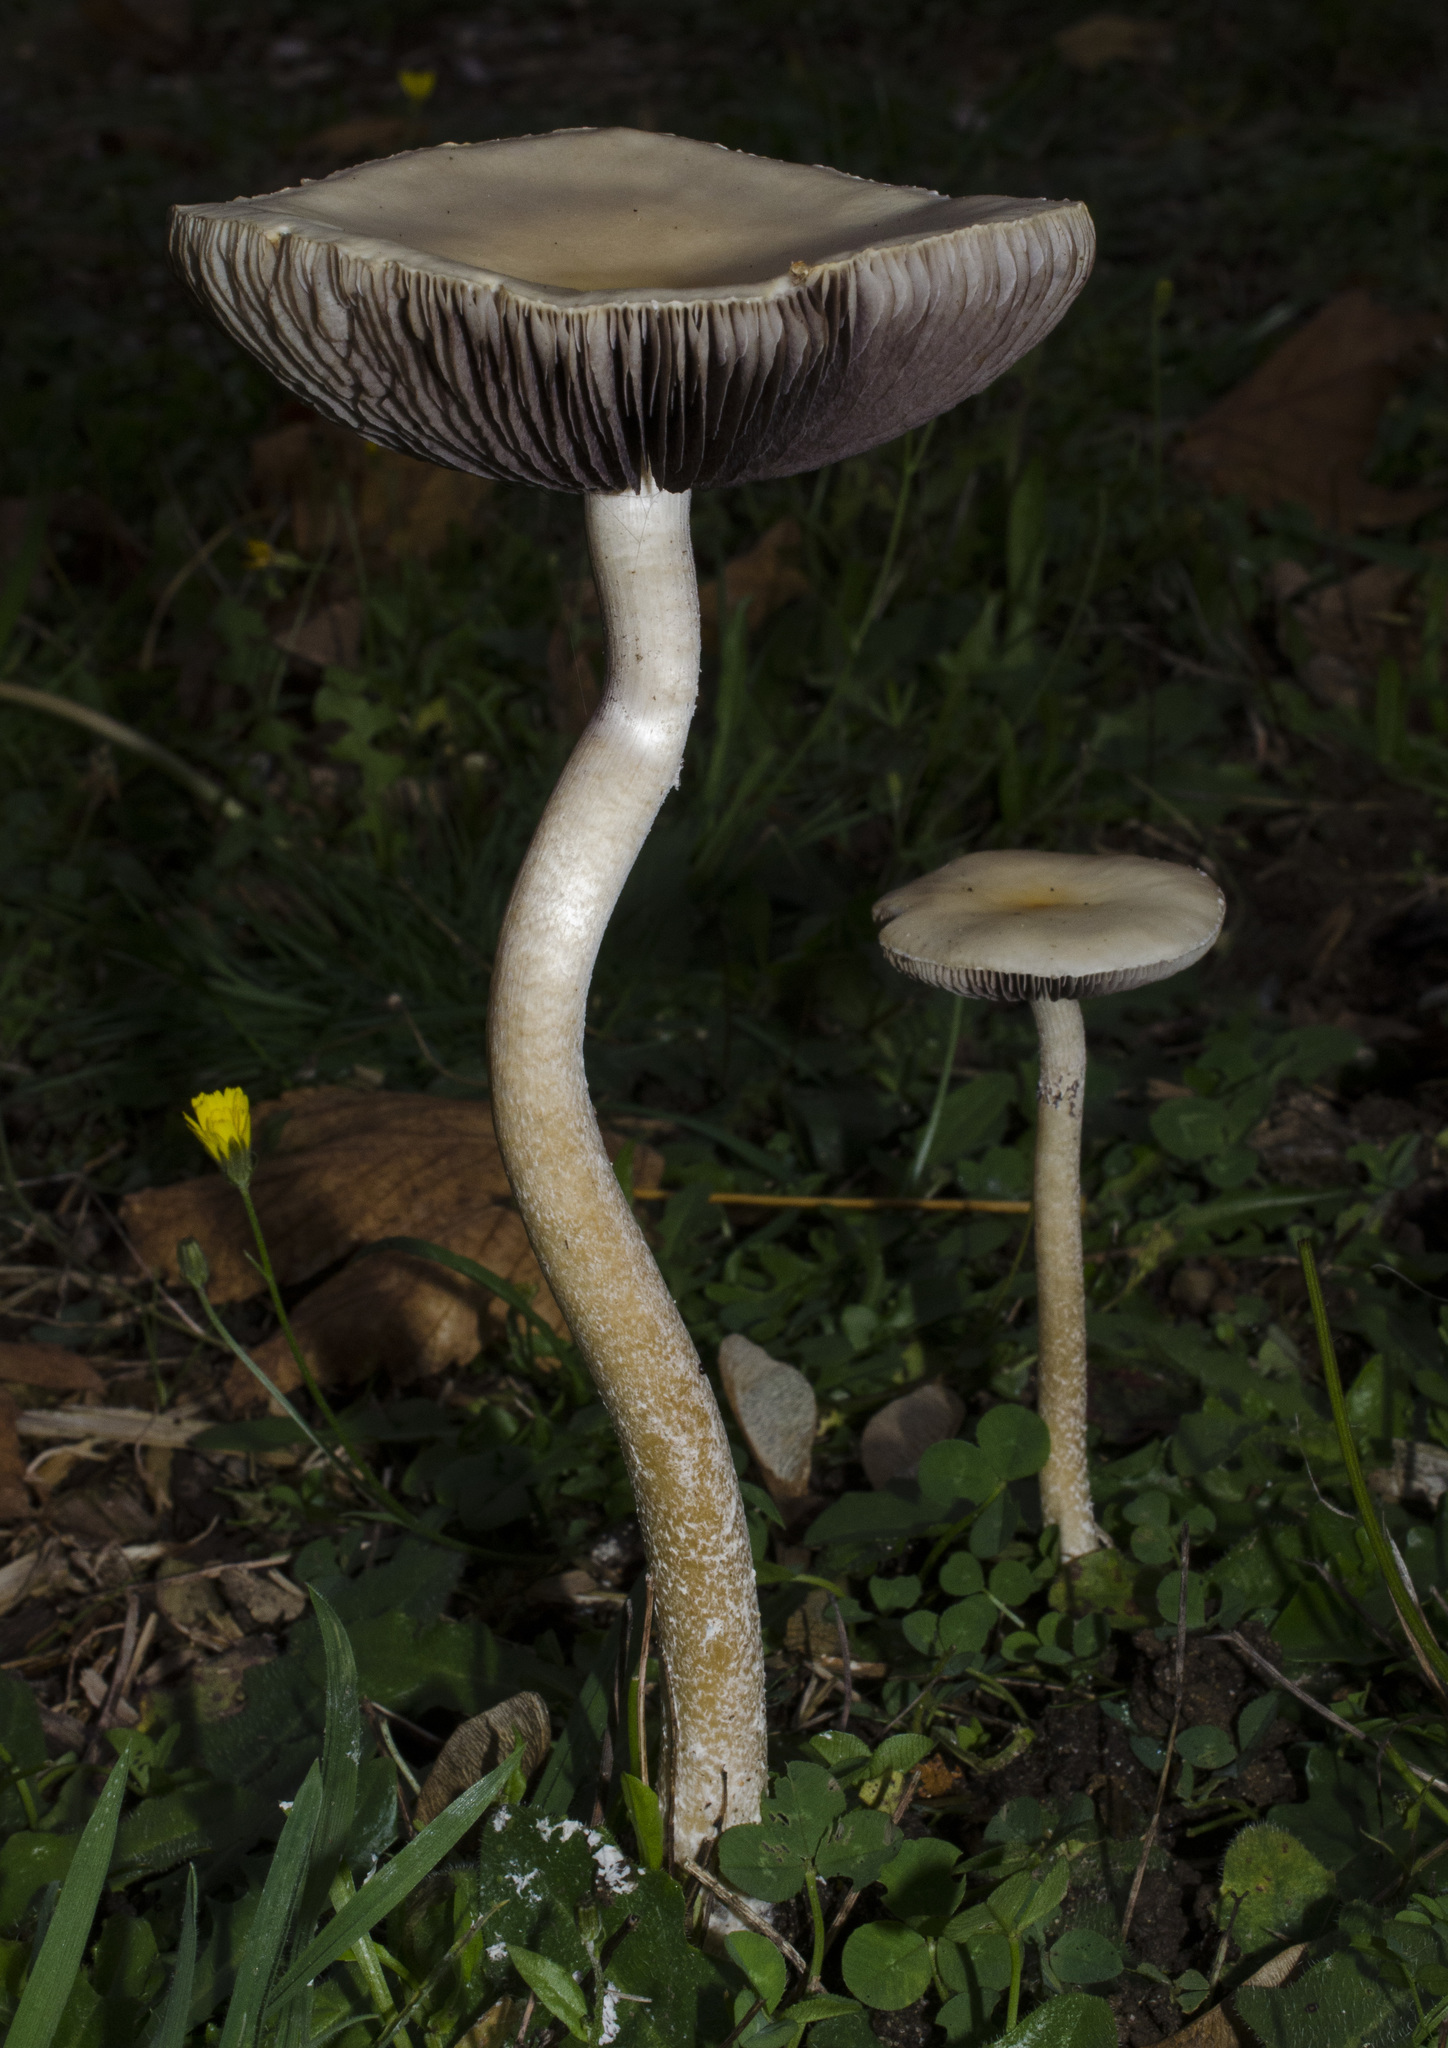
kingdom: Fungi
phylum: Basidiomycota
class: Agaricomycetes
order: Agaricales
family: Strophariaceae
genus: Stropharia
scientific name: Stropharia ambigua
